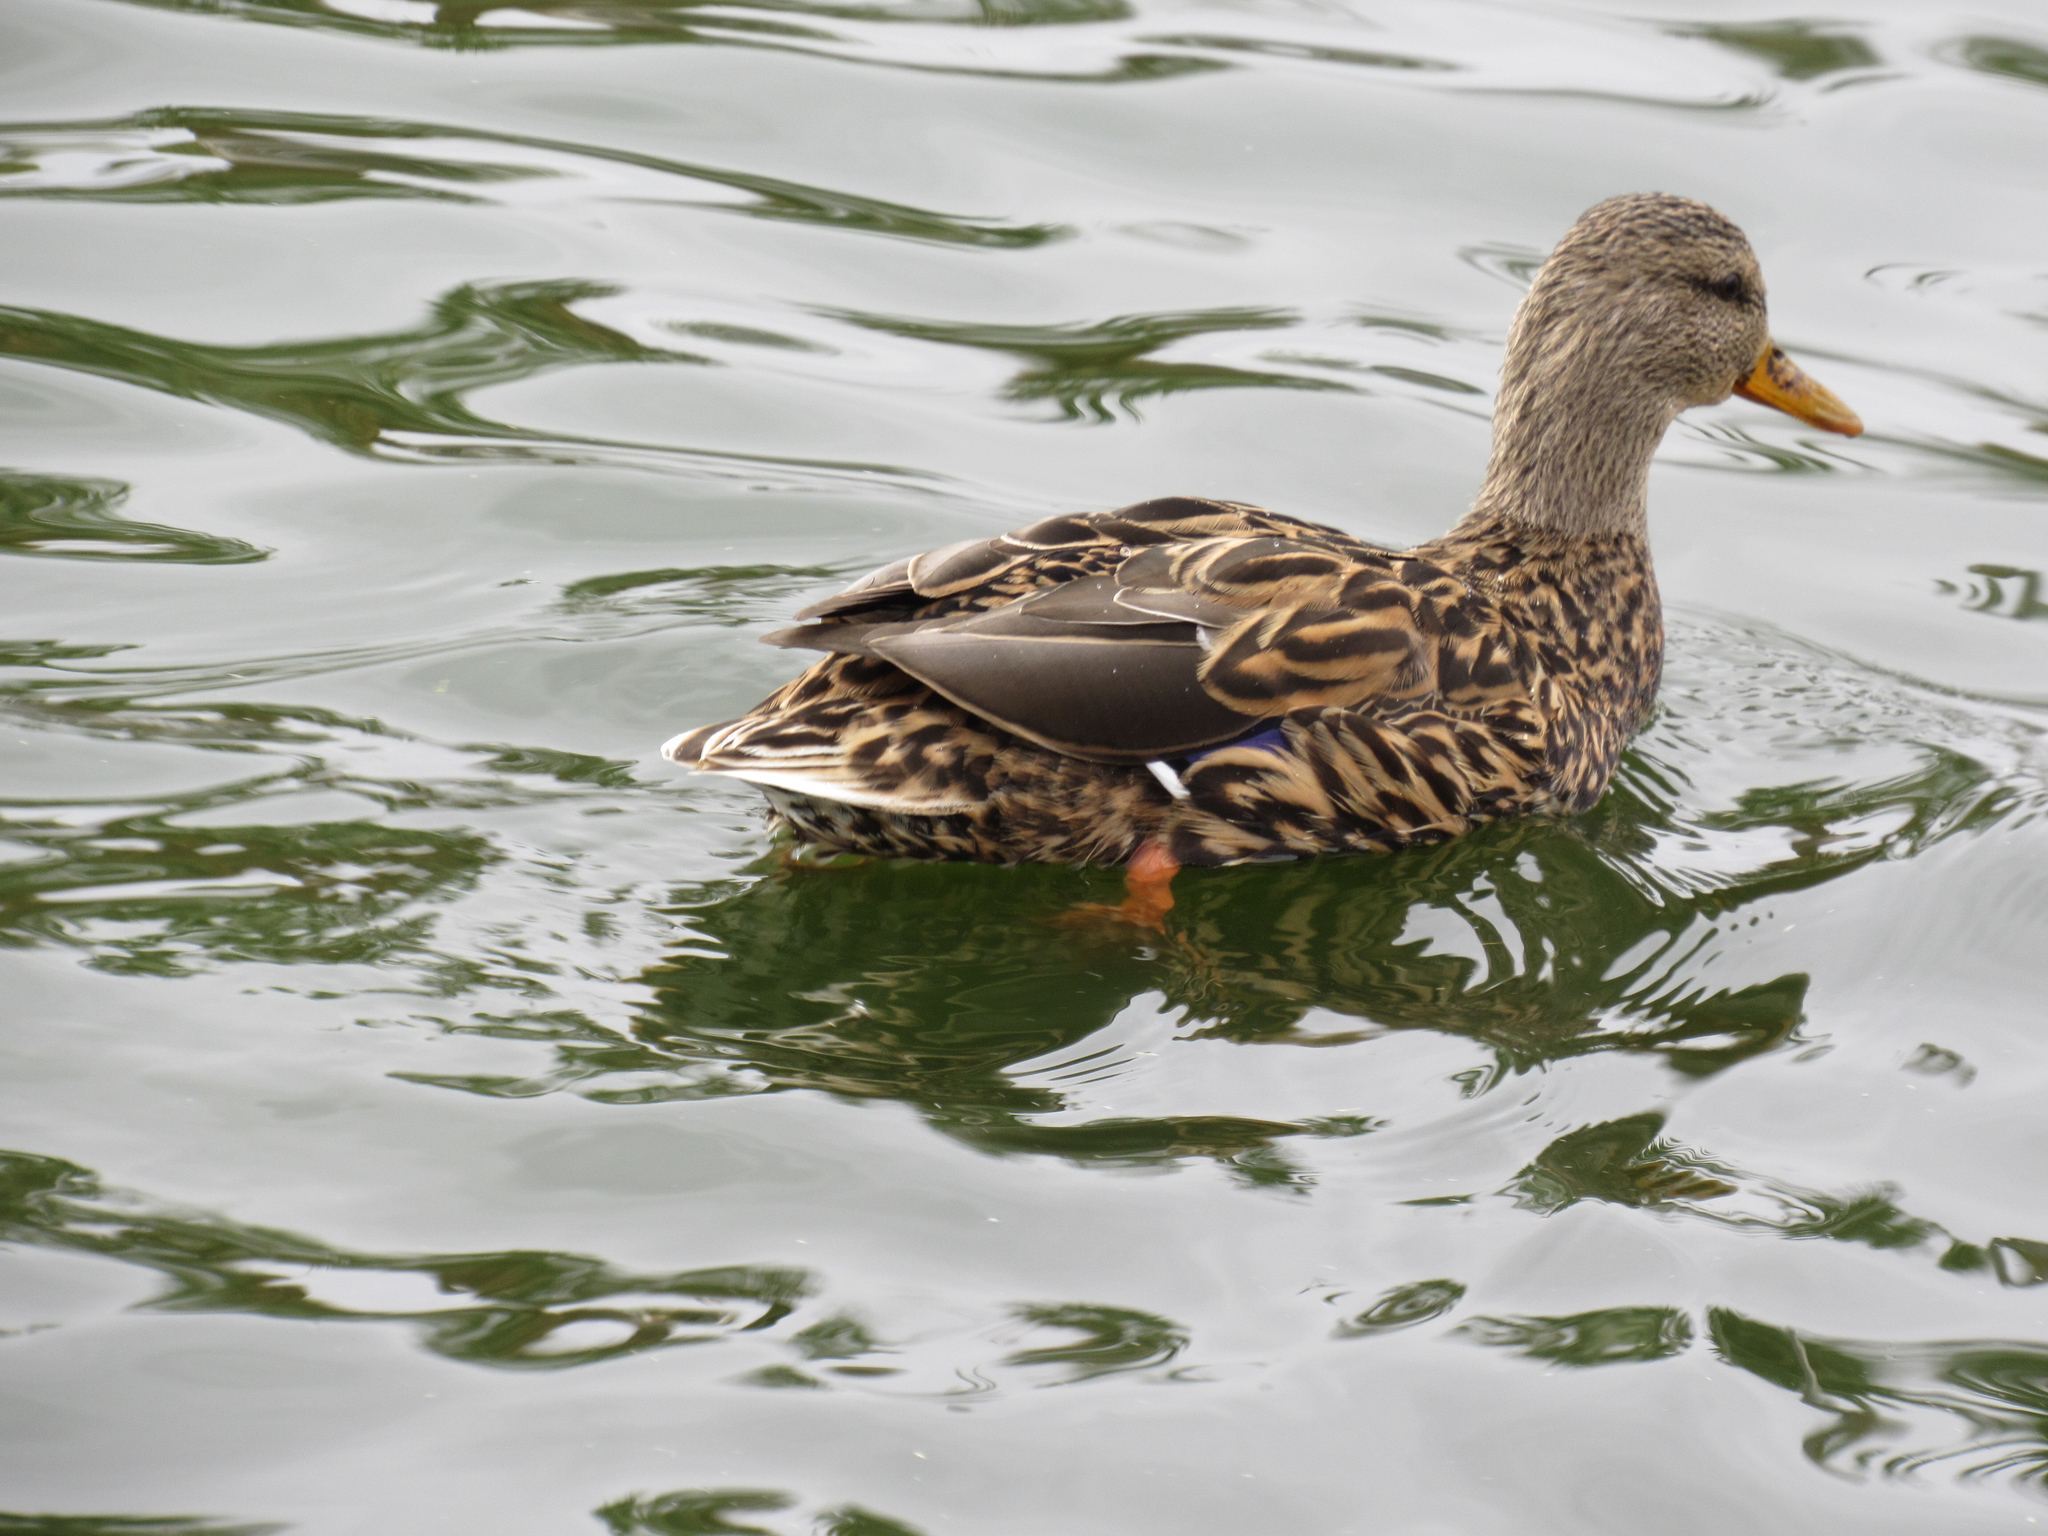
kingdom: Animalia
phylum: Chordata
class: Aves
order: Anseriformes
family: Anatidae
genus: Anas
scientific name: Anas platyrhynchos
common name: Mallard
